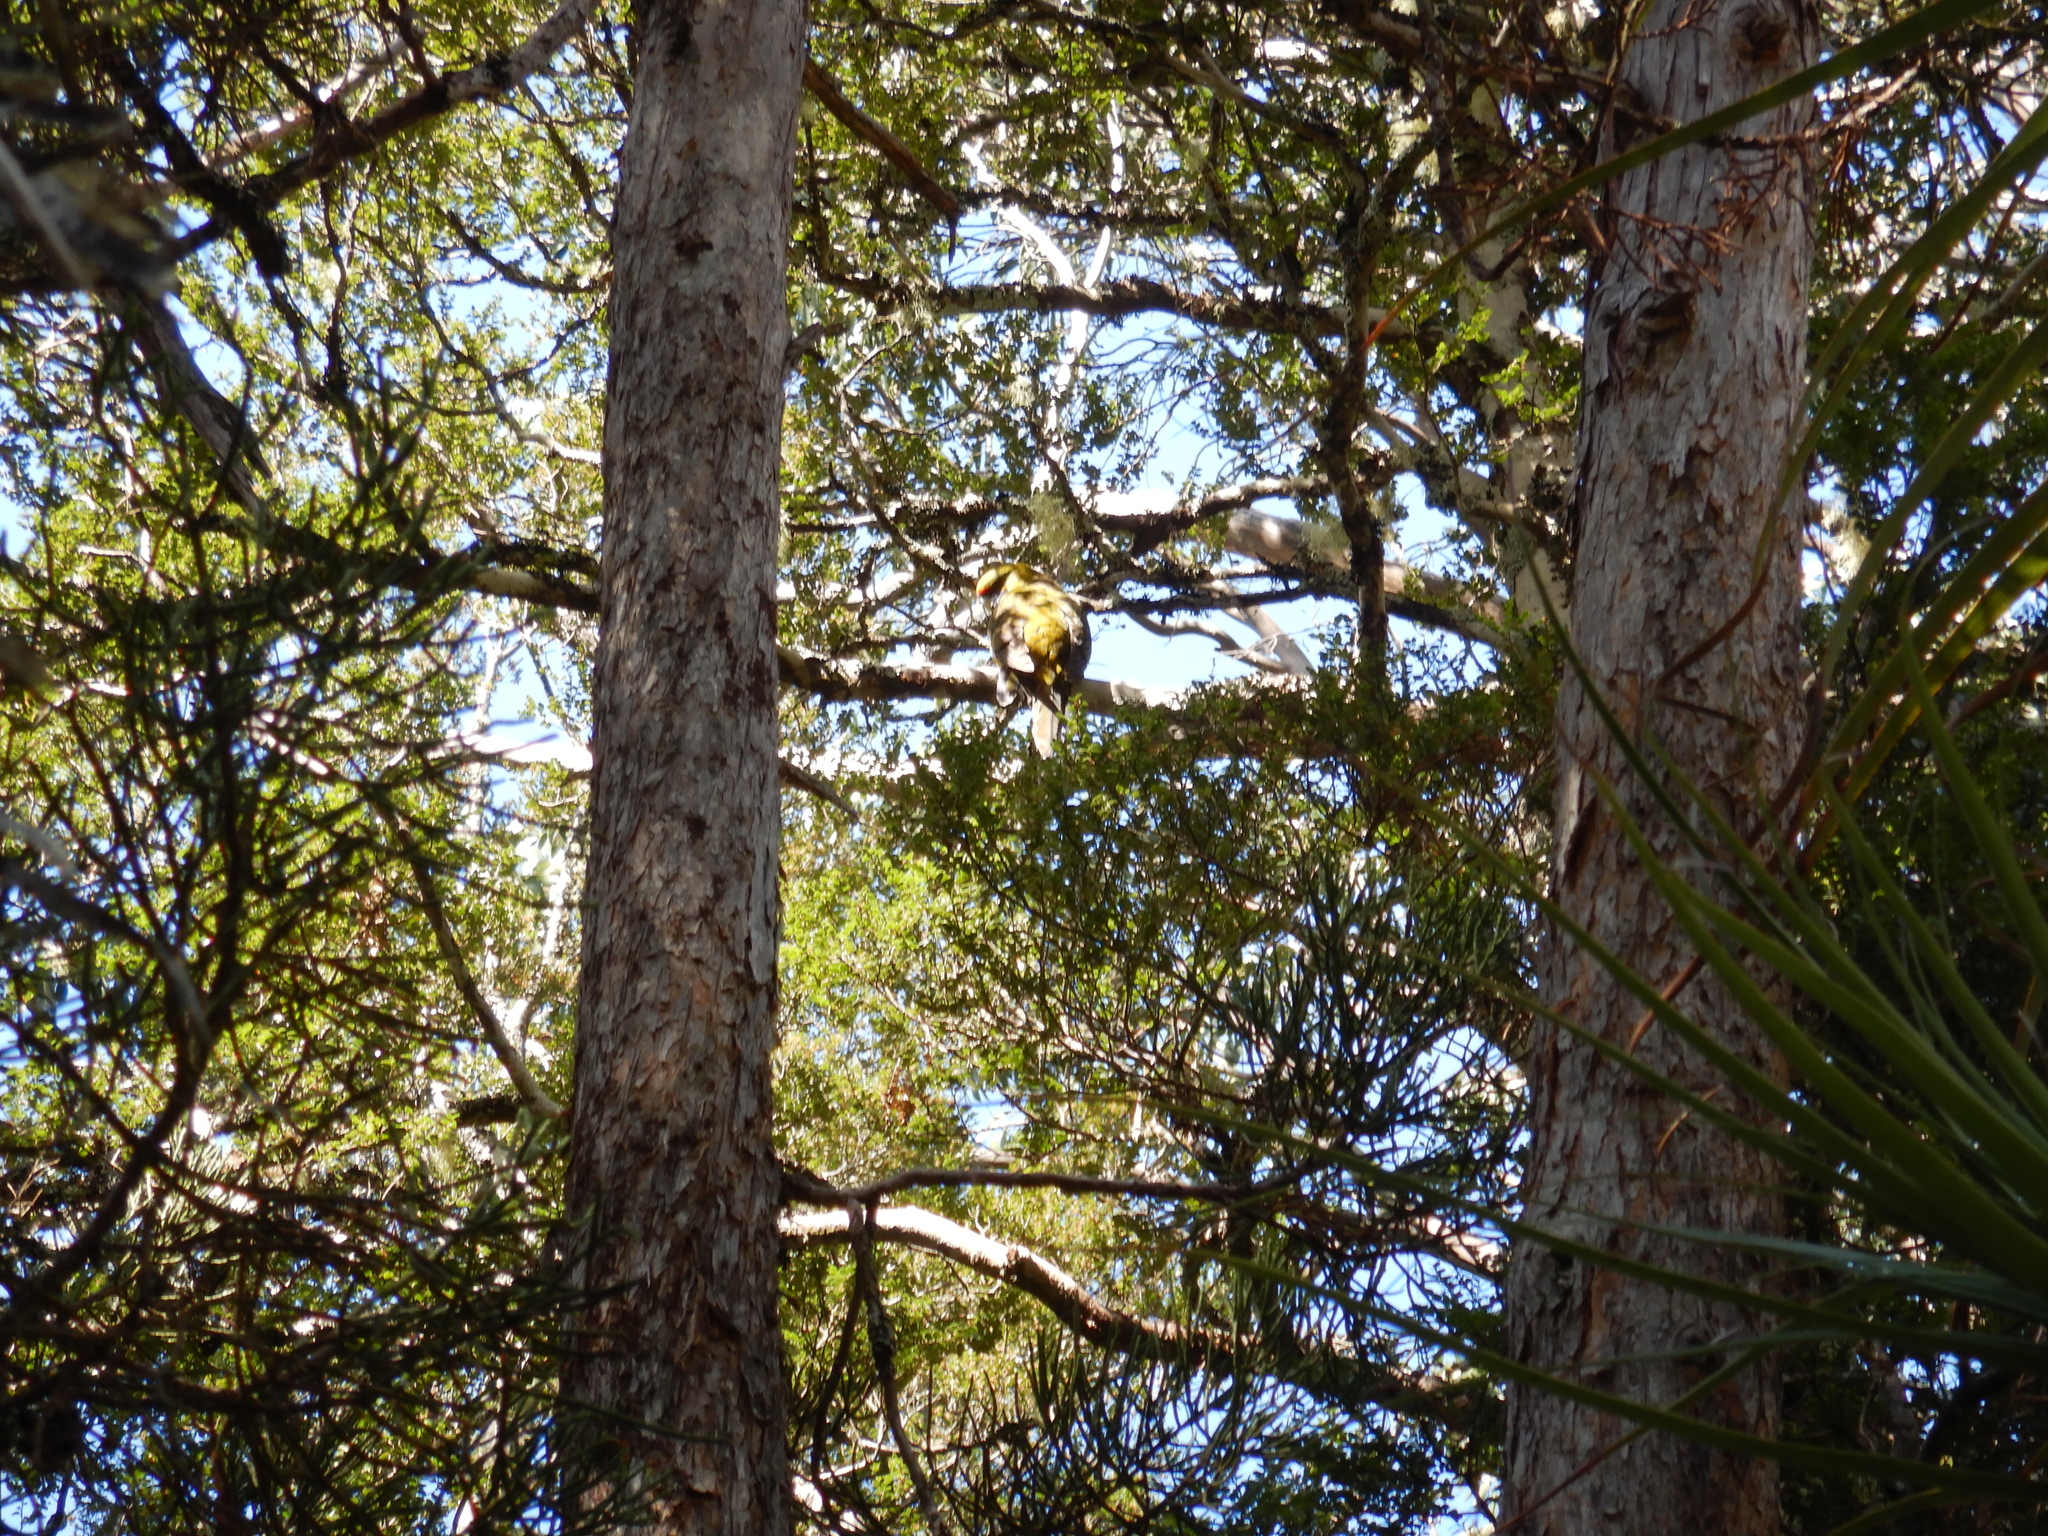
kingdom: Animalia
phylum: Chordata
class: Aves
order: Psittaciformes
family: Psittacidae
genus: Platycercus
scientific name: Platycercus caledonicus
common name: Green rosella
